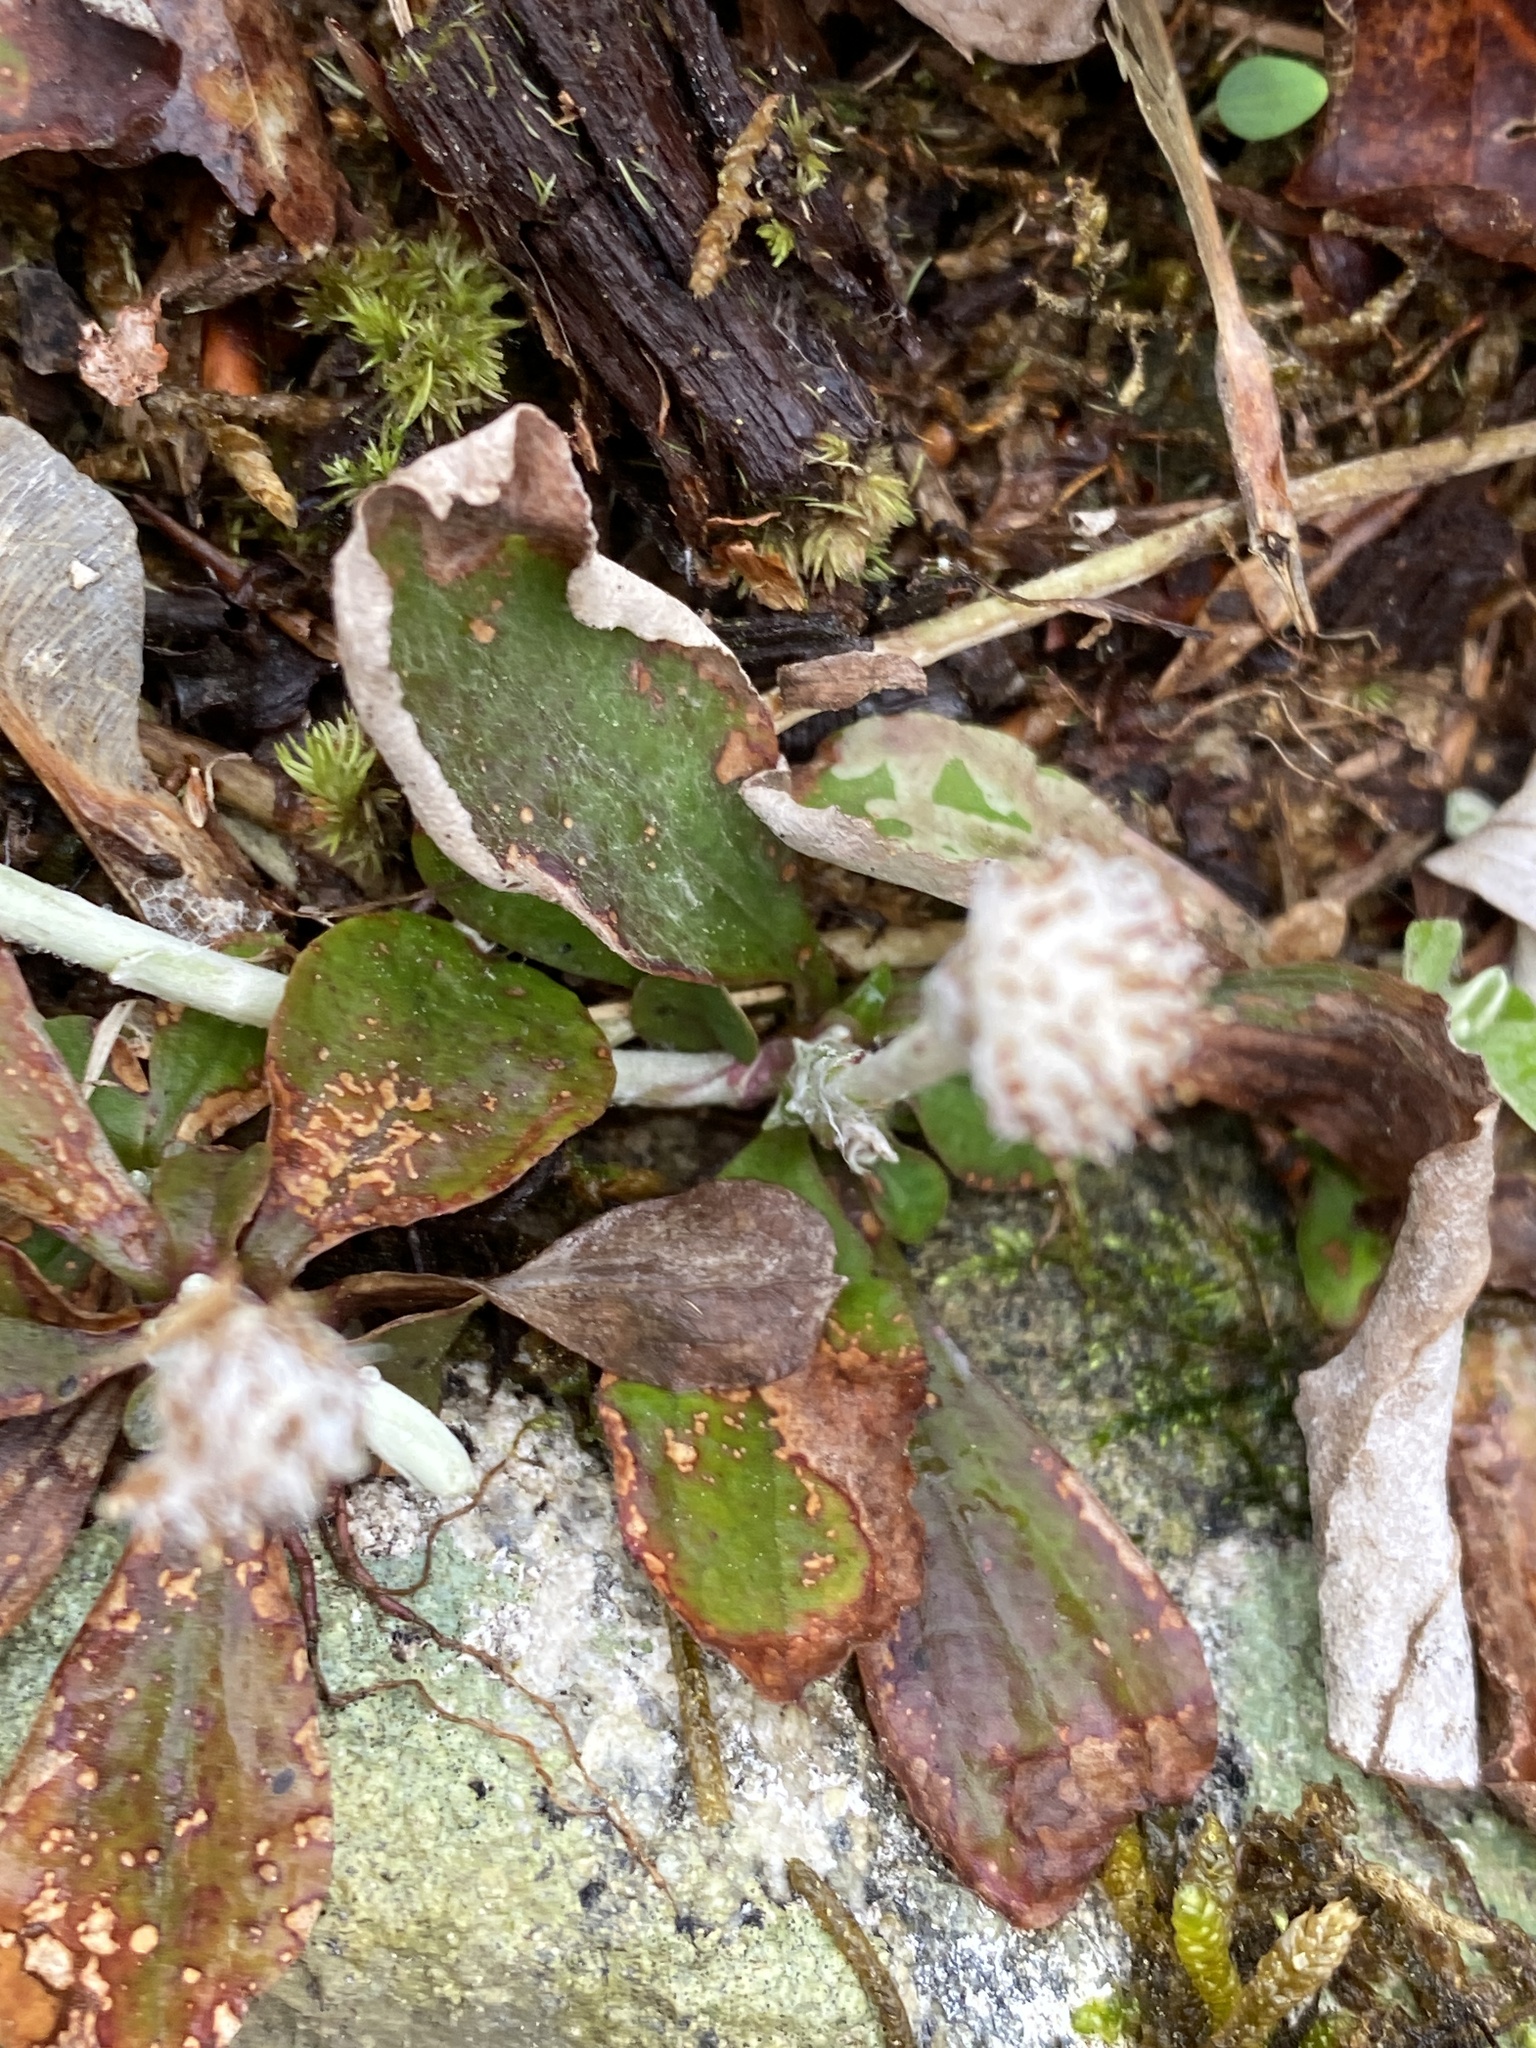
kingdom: Plantae
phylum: Tracheophyta
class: Magnoliopsida
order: Asterales
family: Asteraceae
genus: Antennaria
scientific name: Antennaria solitaria
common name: Single-head pussytoes
